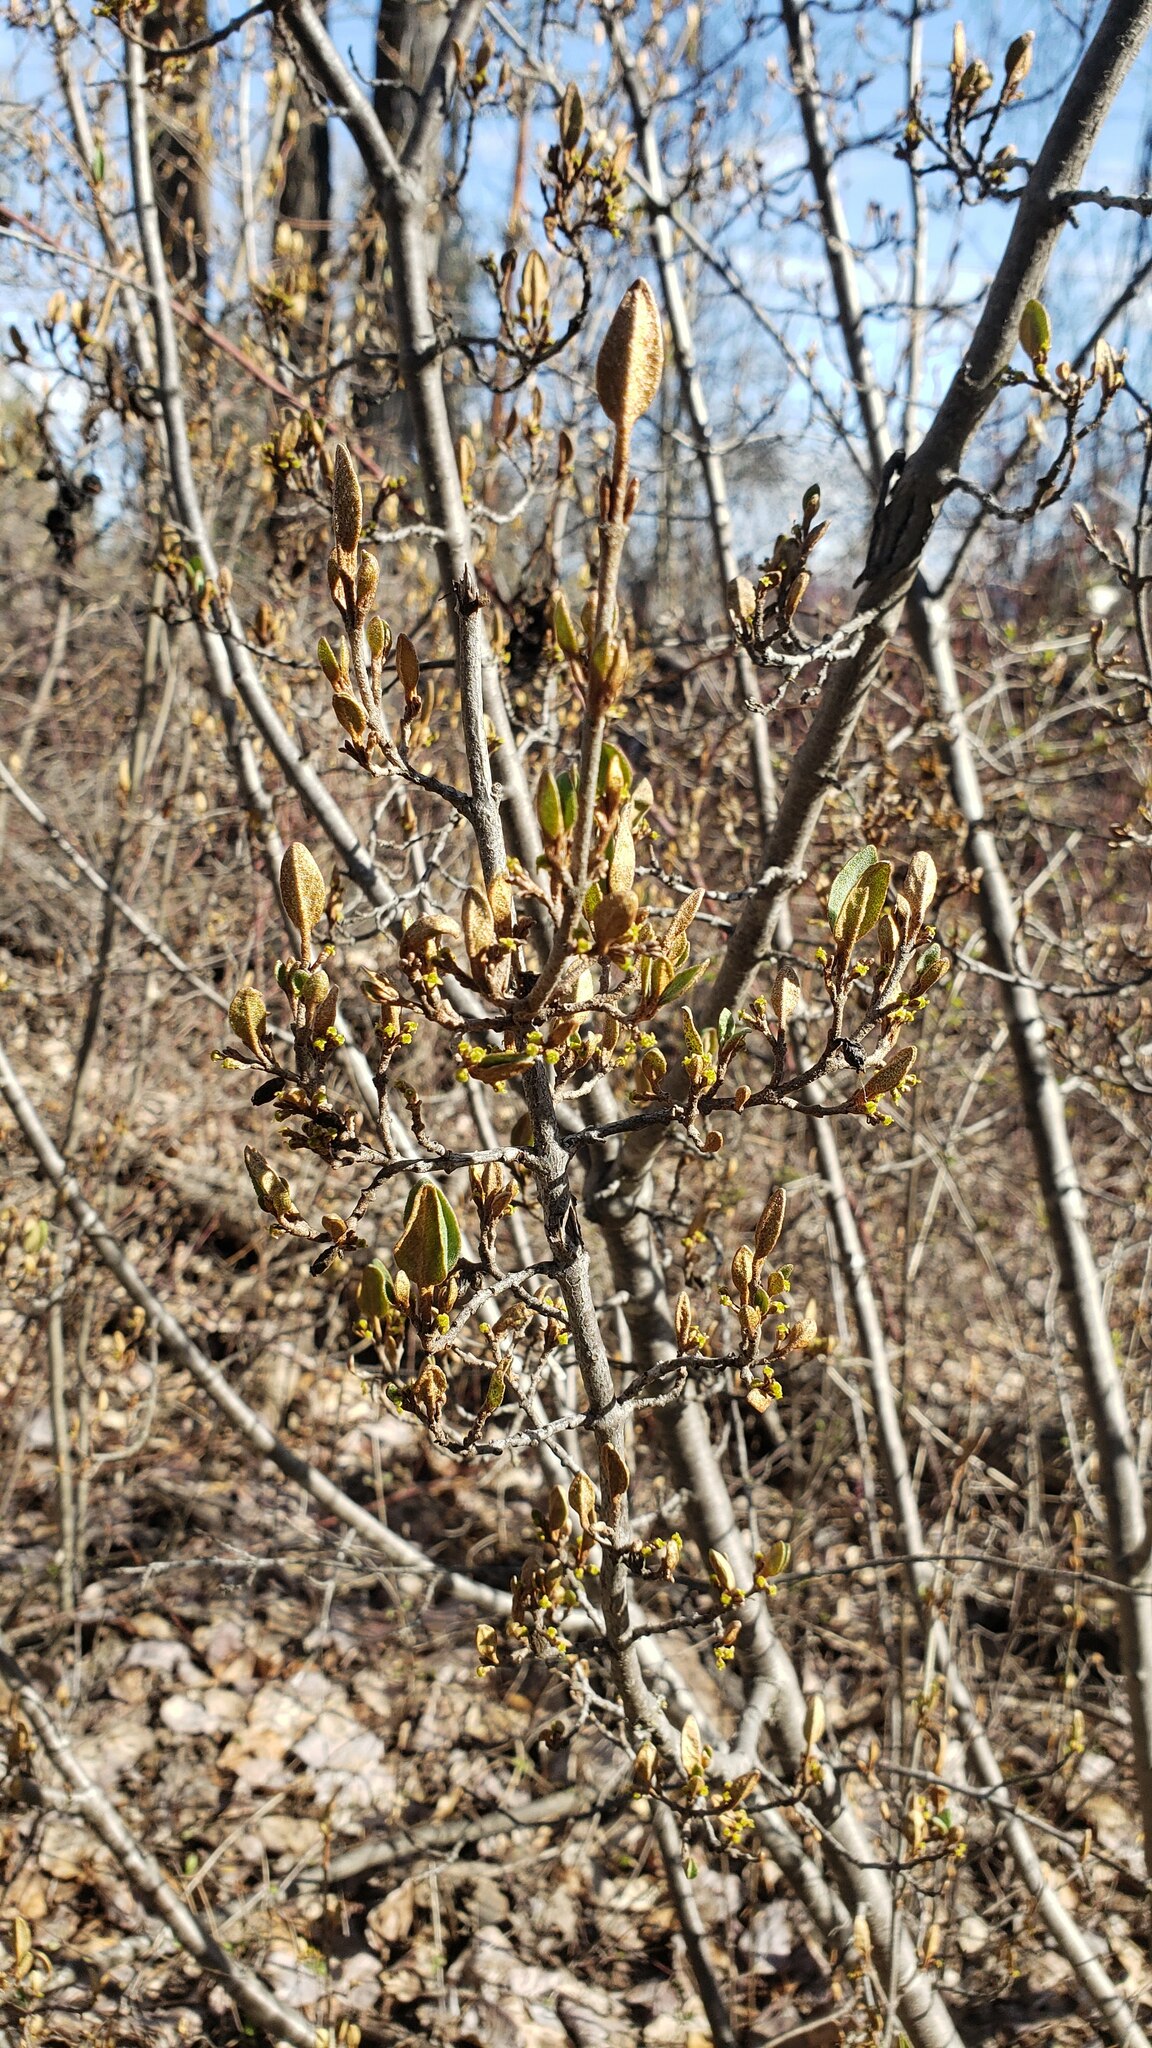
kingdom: Plantae
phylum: Tracheophyta
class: Magnoliopsida
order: Rosales
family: Elaeagnaceae
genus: Shepherdia
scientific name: Shepherdia canadensis
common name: Soapberry
